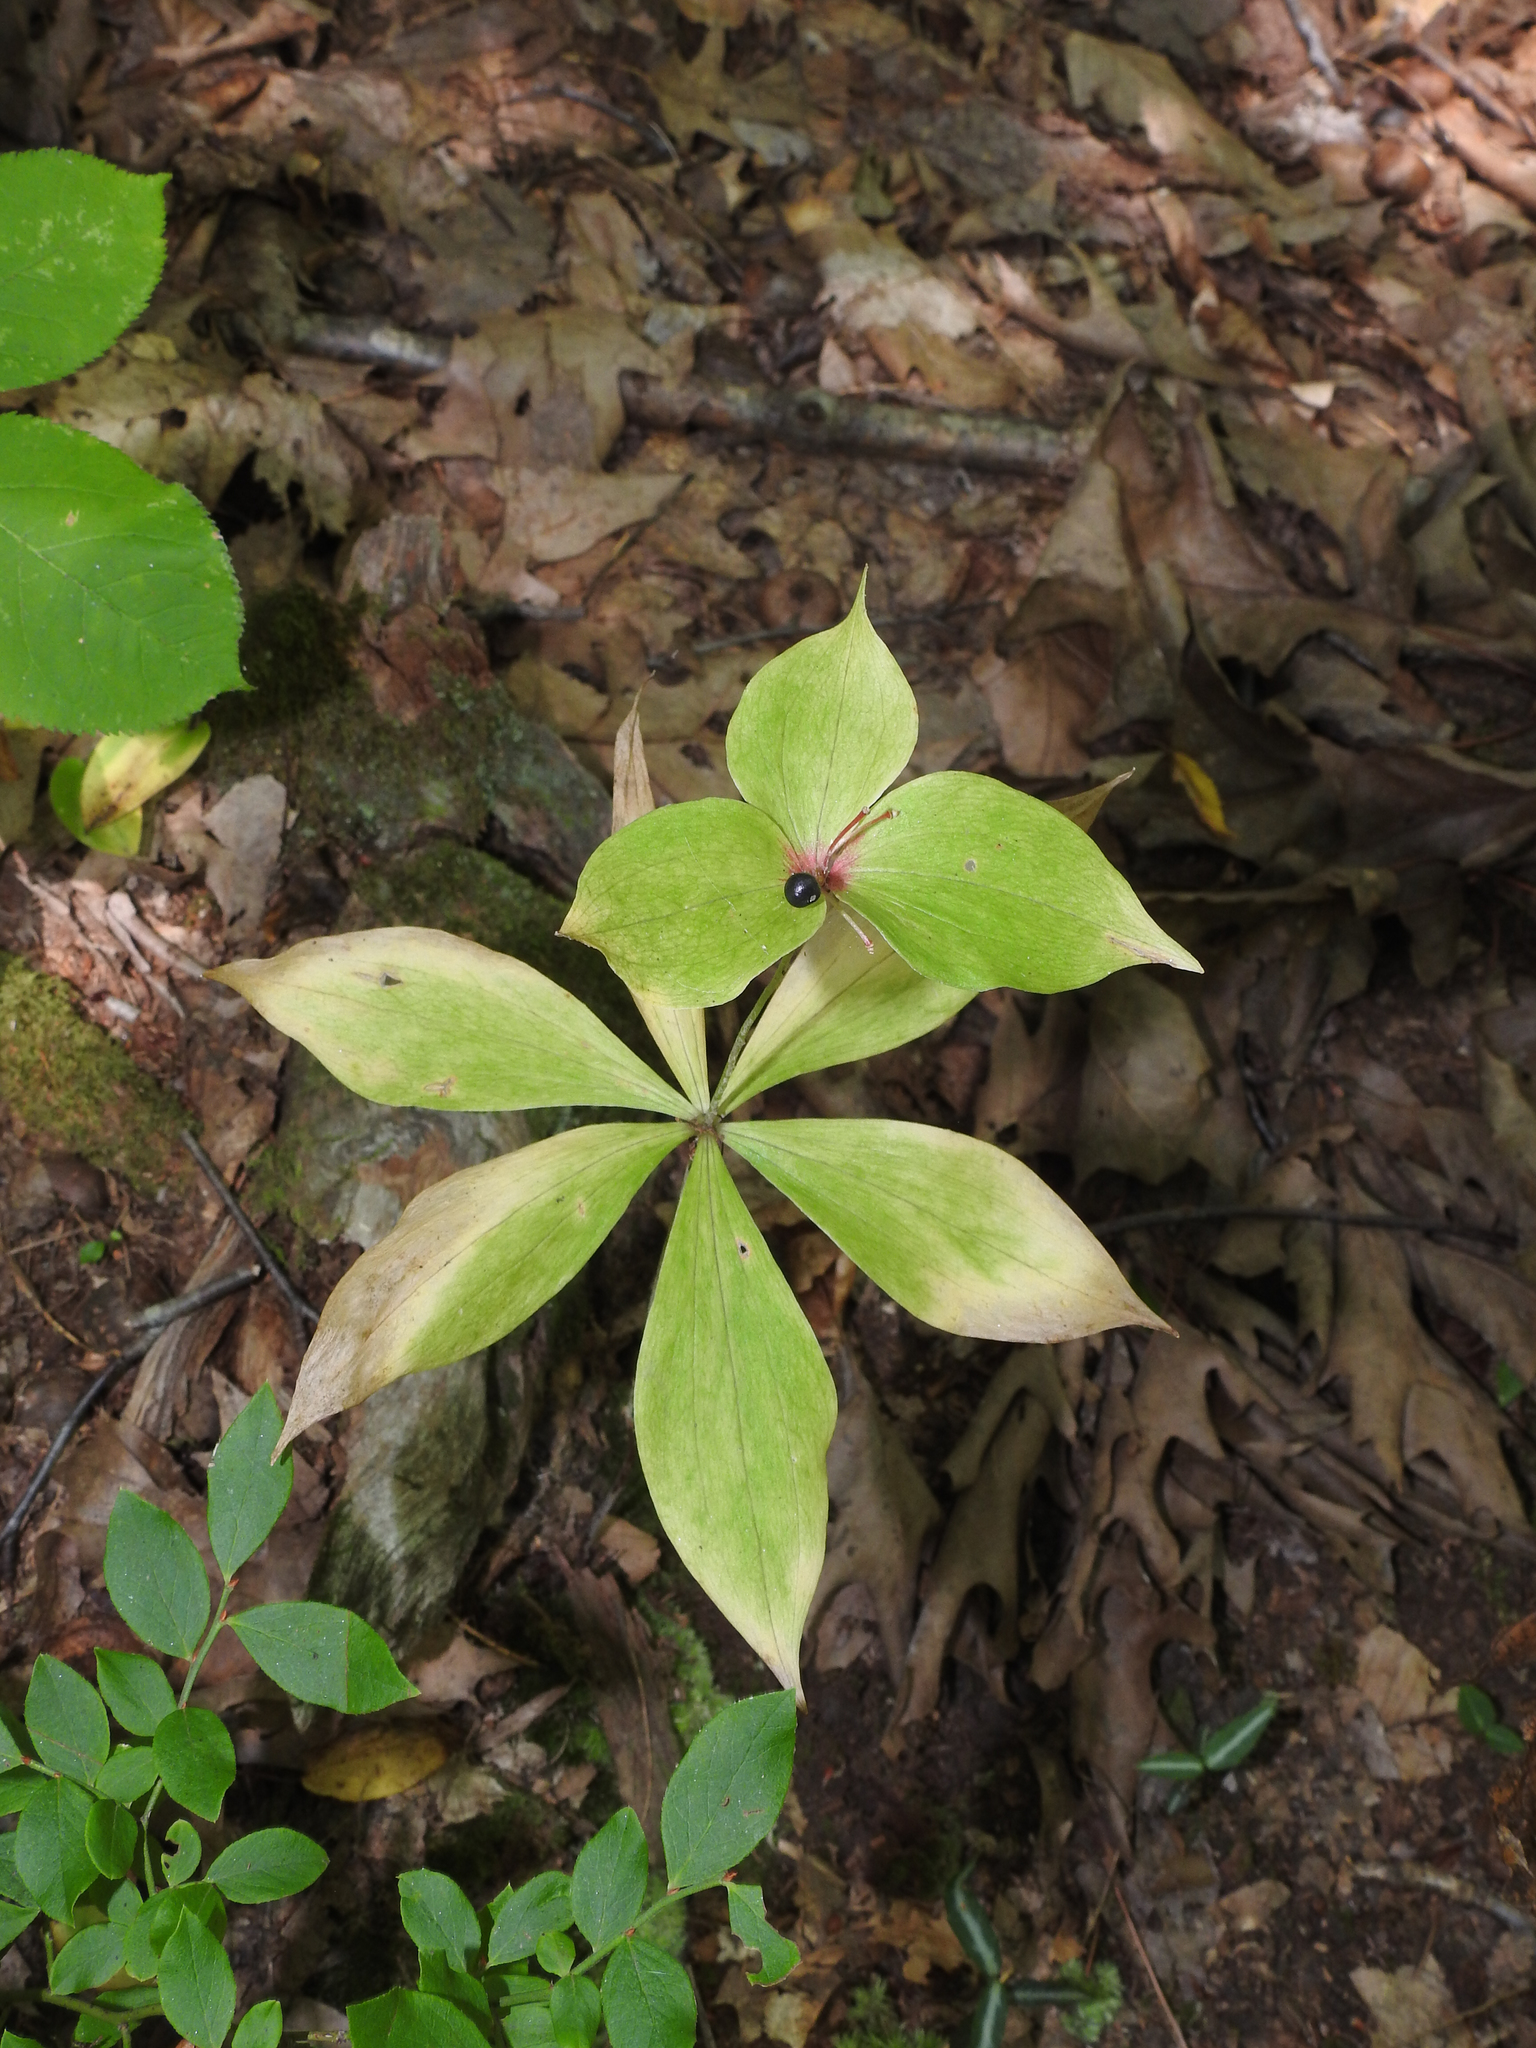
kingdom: Plantae
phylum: Tracheophyta
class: Liliopsida
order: Liliales
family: Liliaceae
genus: Medeola
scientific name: Medeola virginiana
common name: Indian cucumber-root
